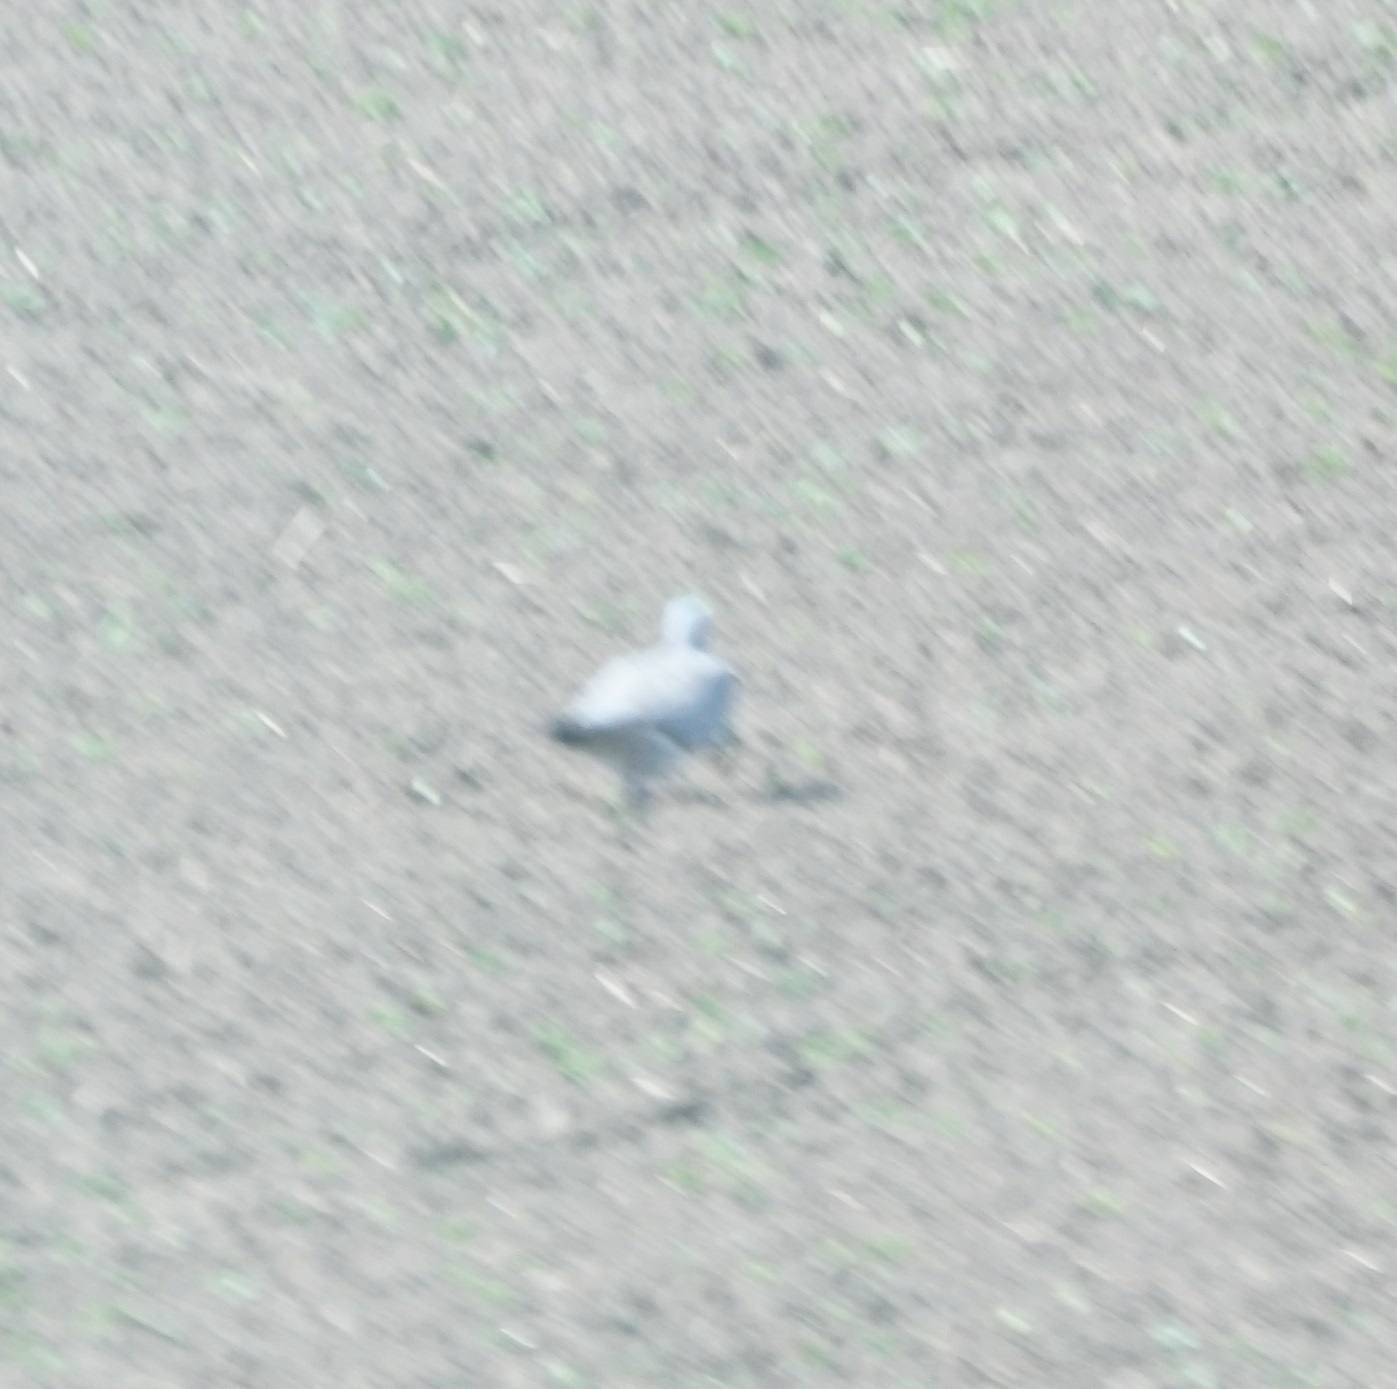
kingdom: Animalia
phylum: Chordata
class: Aves
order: Columbiformes
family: Columbidae
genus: Columba
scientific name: Columba palumbus
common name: Common wood pigeon
